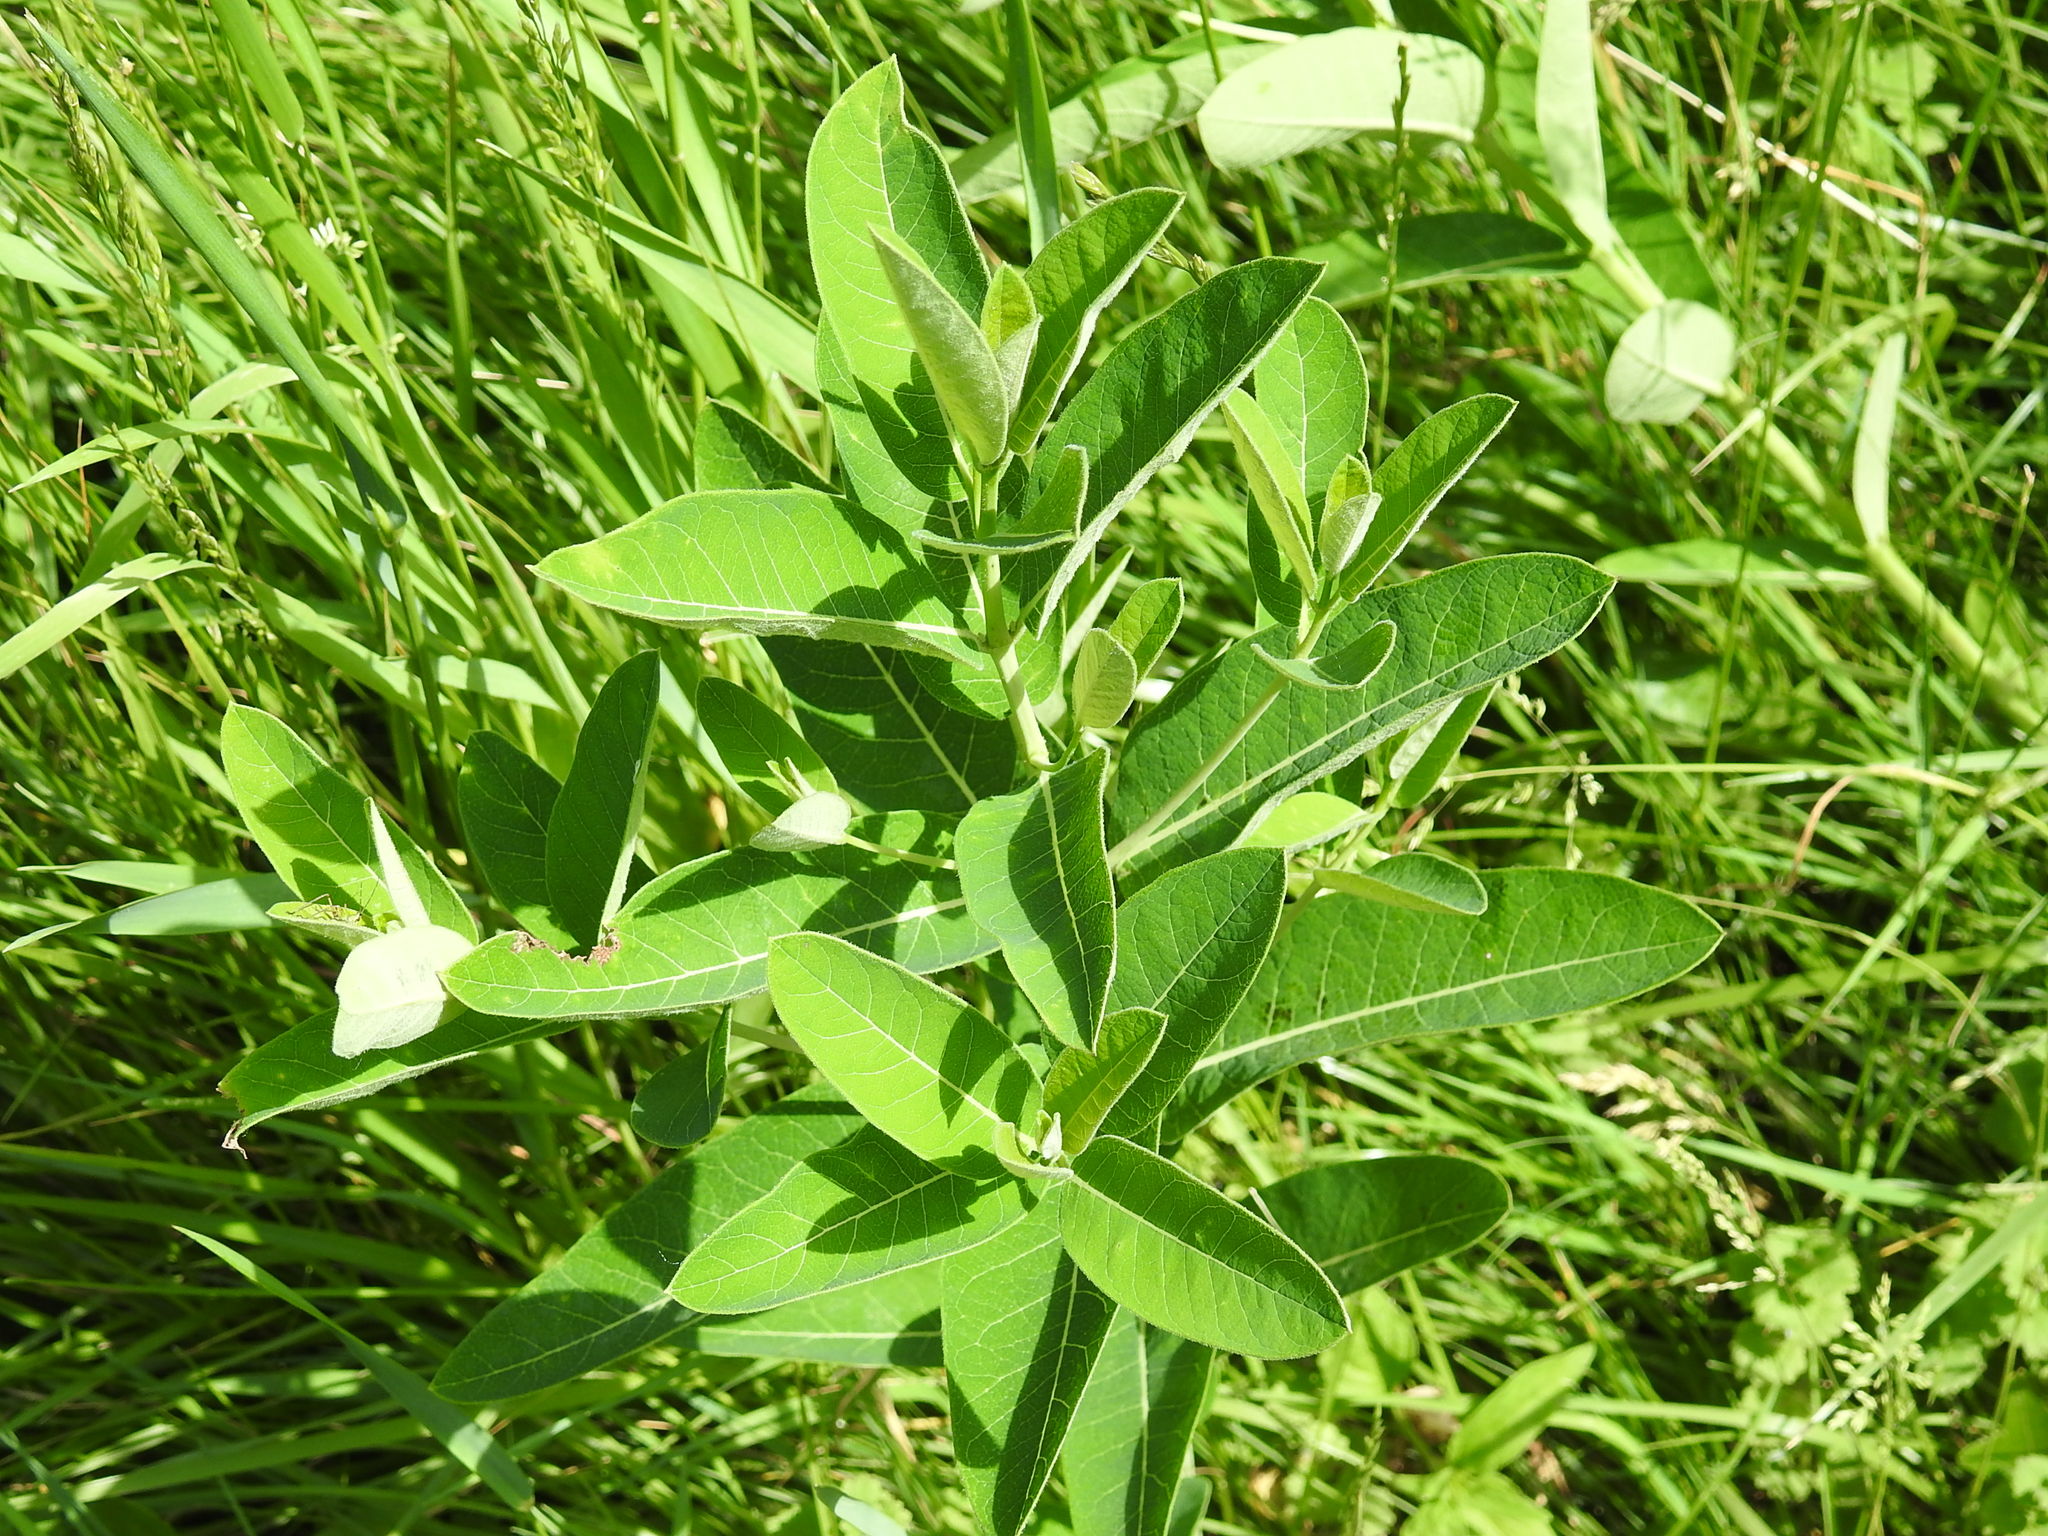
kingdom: Plantae
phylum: Tracheophyta
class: Magnoliopsida
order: Gentianales
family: Apocynaceae
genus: Asclepias
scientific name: Asclepias syriaca
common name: Common milkweed
